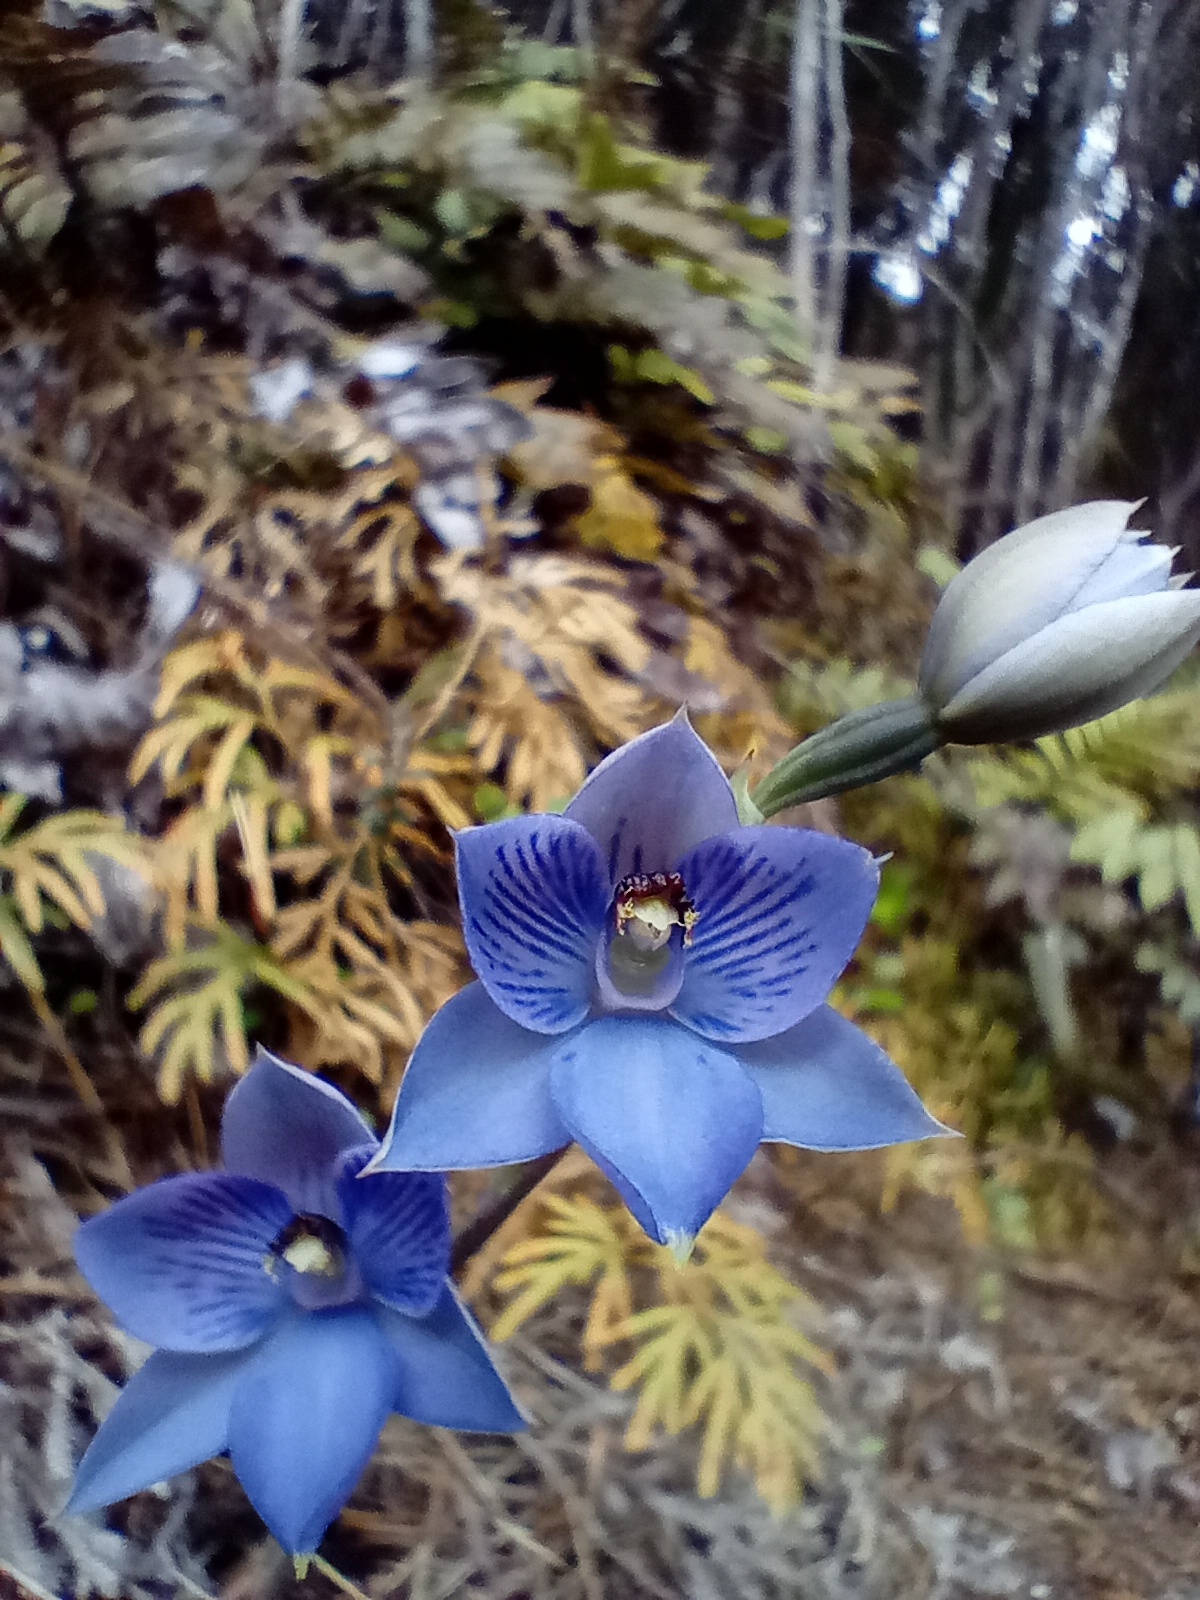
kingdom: Plantae
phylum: Tracheophyta
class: Liliopsida
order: Asparagales
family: Orchidaceae
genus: Thelymitra
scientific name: Thelymitra pulchella
